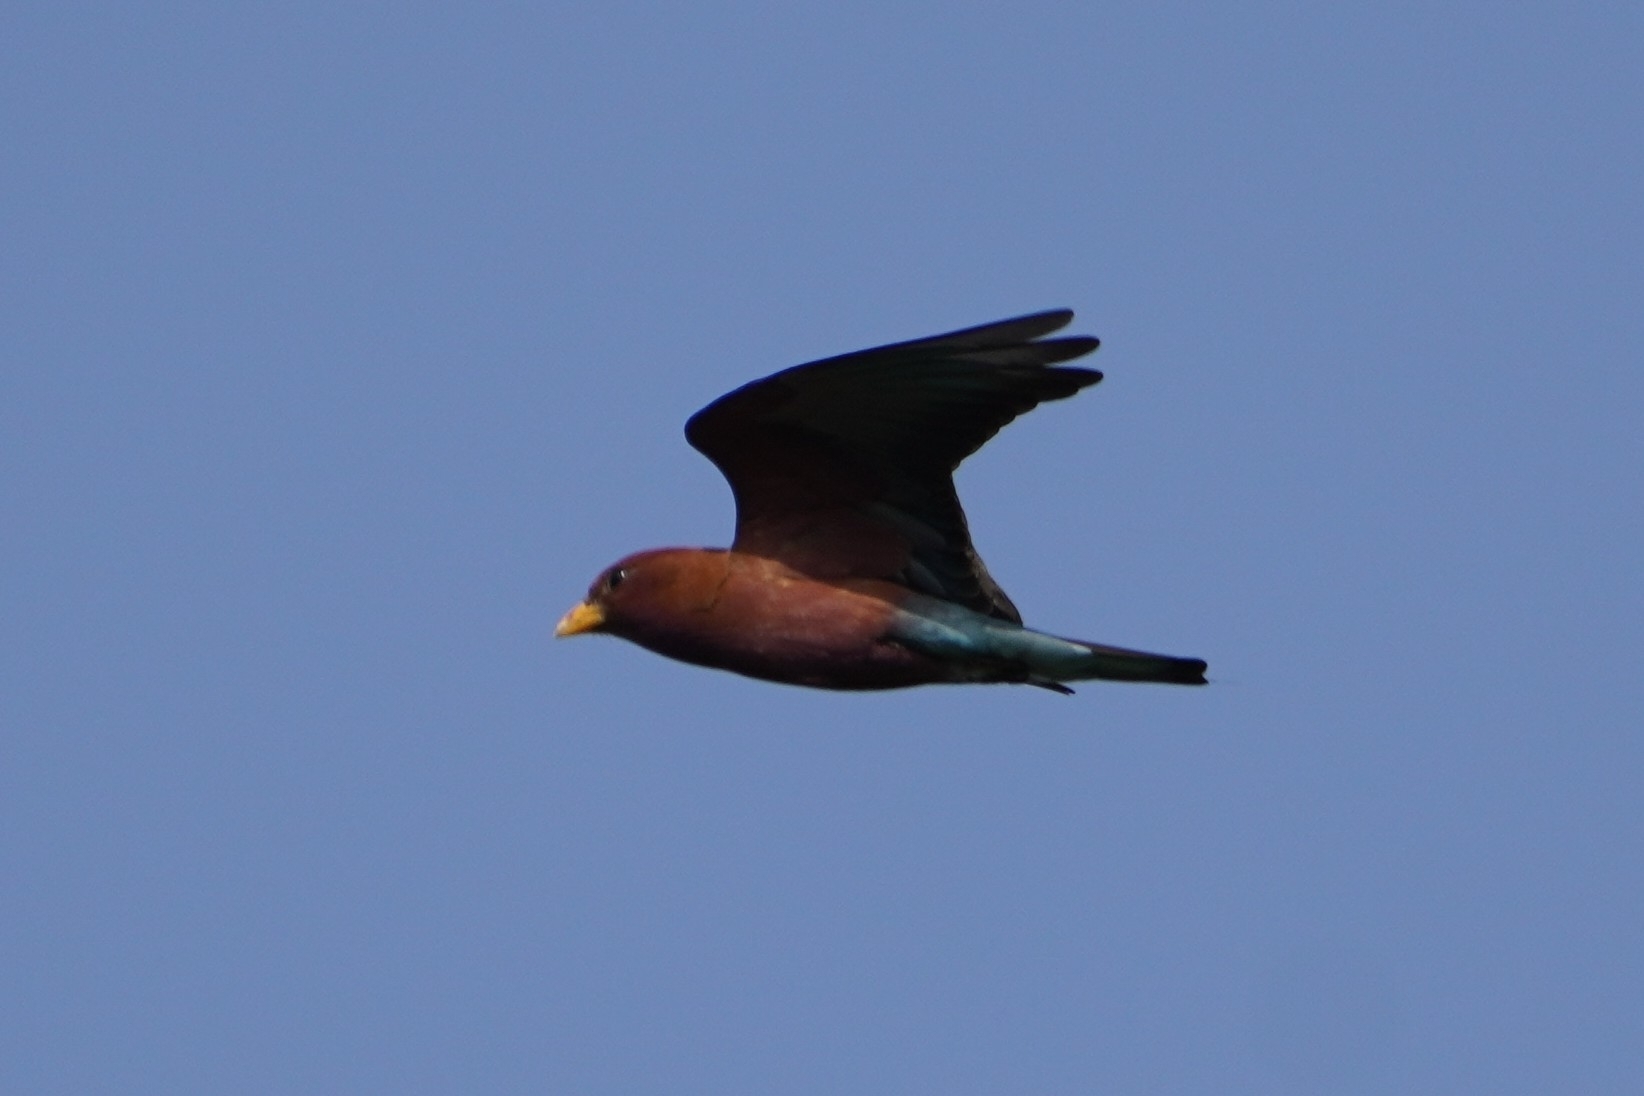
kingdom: Animalia
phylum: Chordata
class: Aves
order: Coraciiformes
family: Coraciidae
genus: Eurystomus
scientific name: Eurystomus glaucurus
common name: Broad-billed roller
